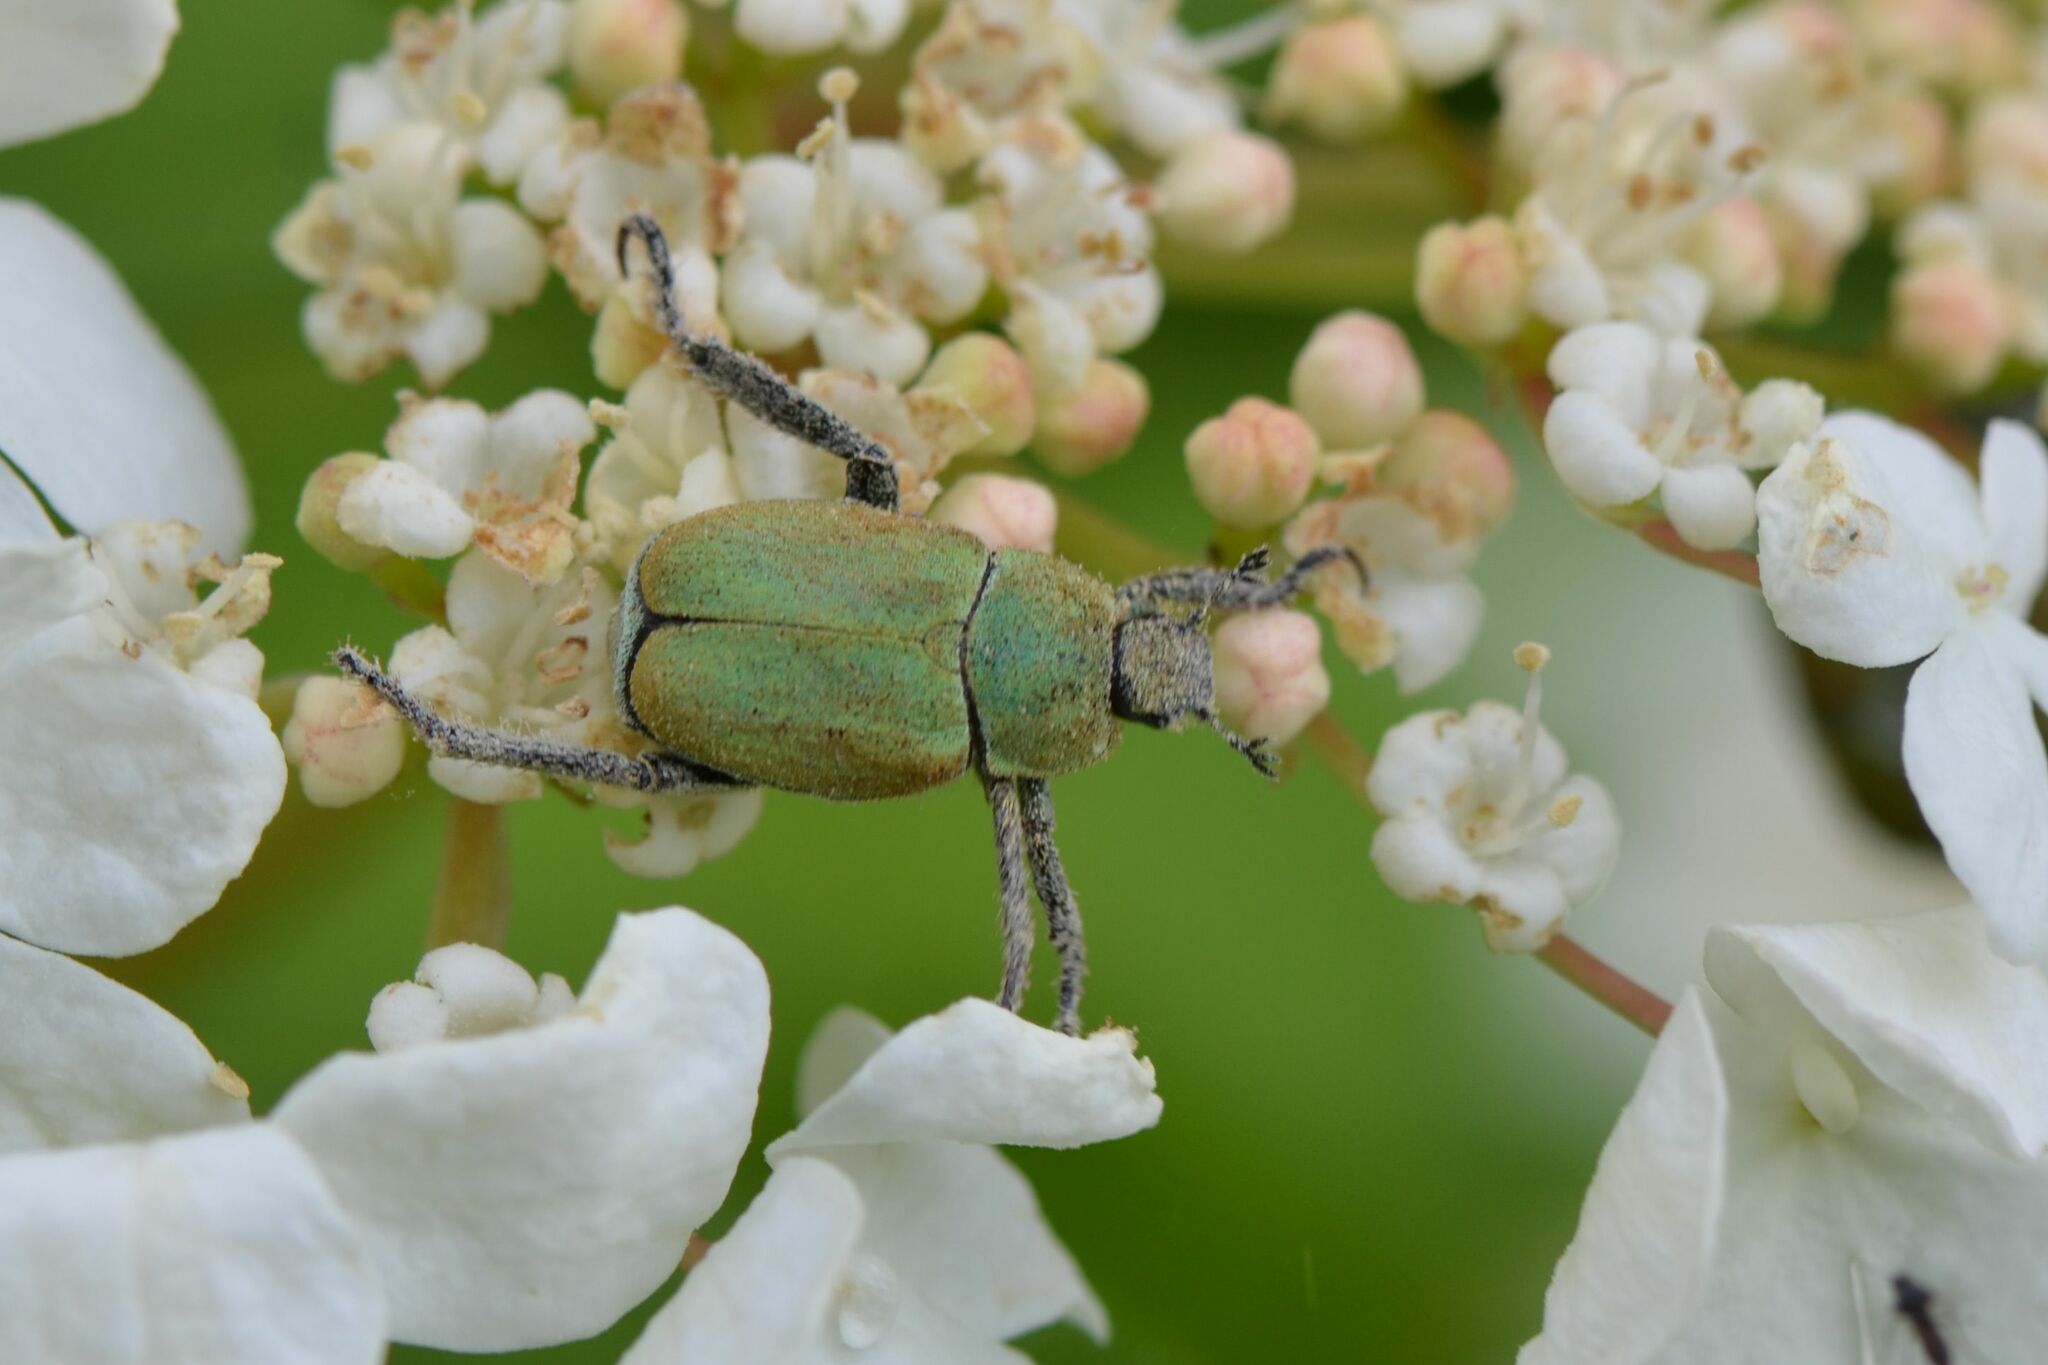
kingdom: Animalia
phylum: Arthropoda
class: Insecta
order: Coleoptera
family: Scarabaeidae
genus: Hoplia
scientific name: Hoplia argentea
